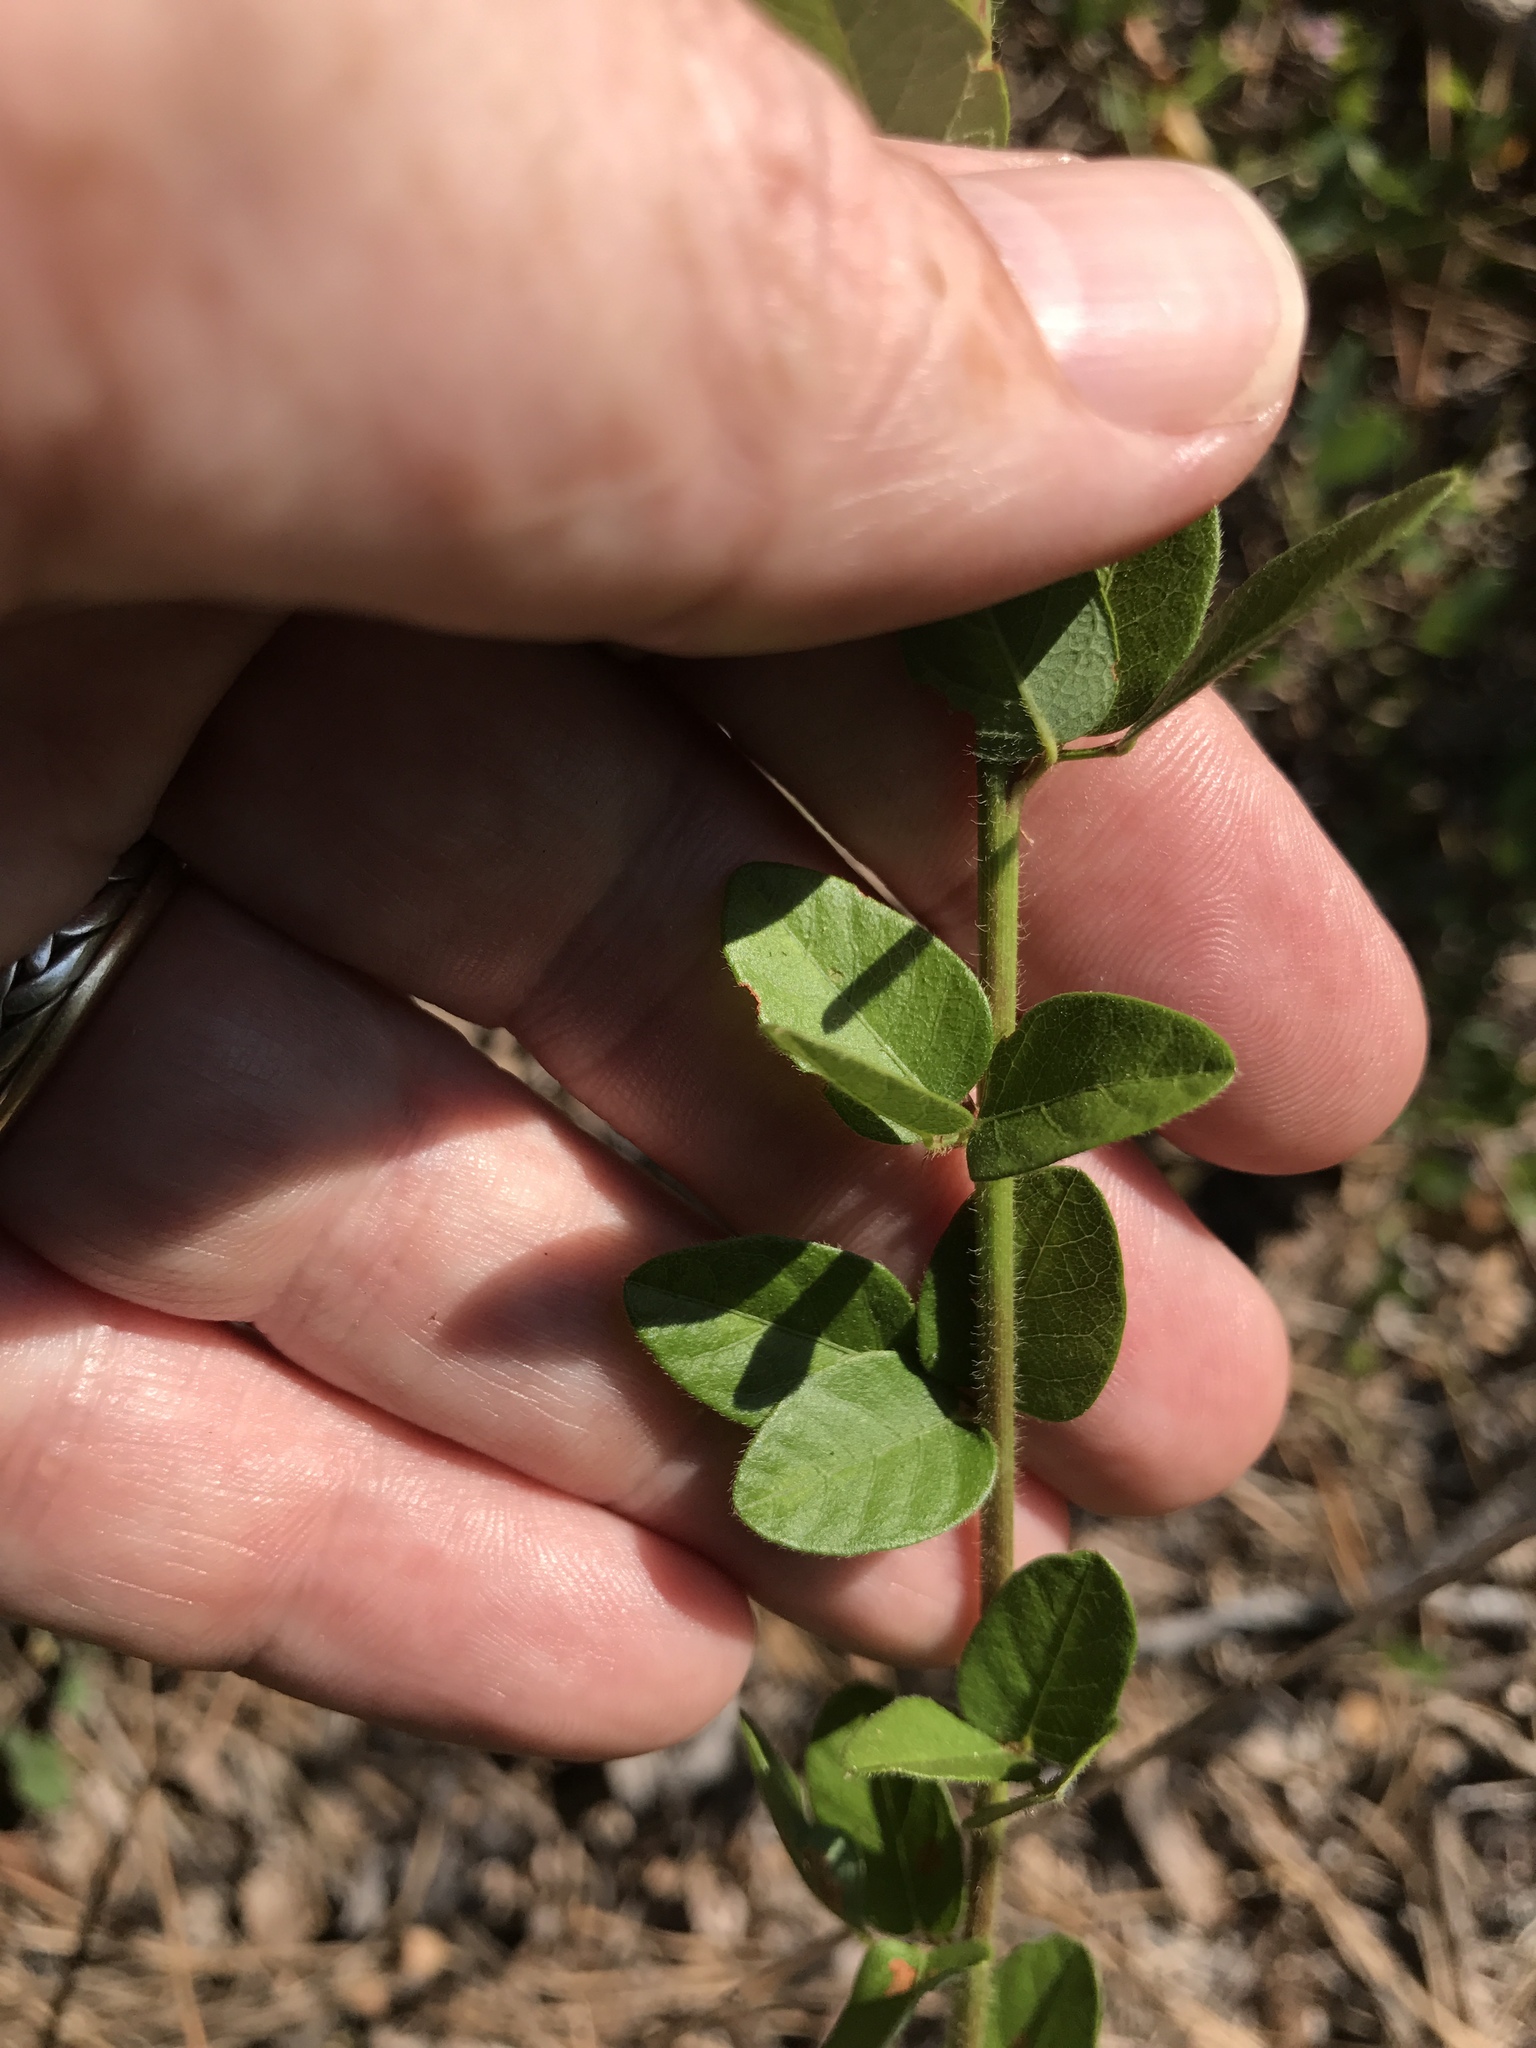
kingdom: Plantae
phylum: Tracheophyta
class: Magnoliopsida
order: Fabales
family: Fabaceae
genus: Desmodium
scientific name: Desmodium ciliare
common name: Hairy small-leaf ticktrefoil
